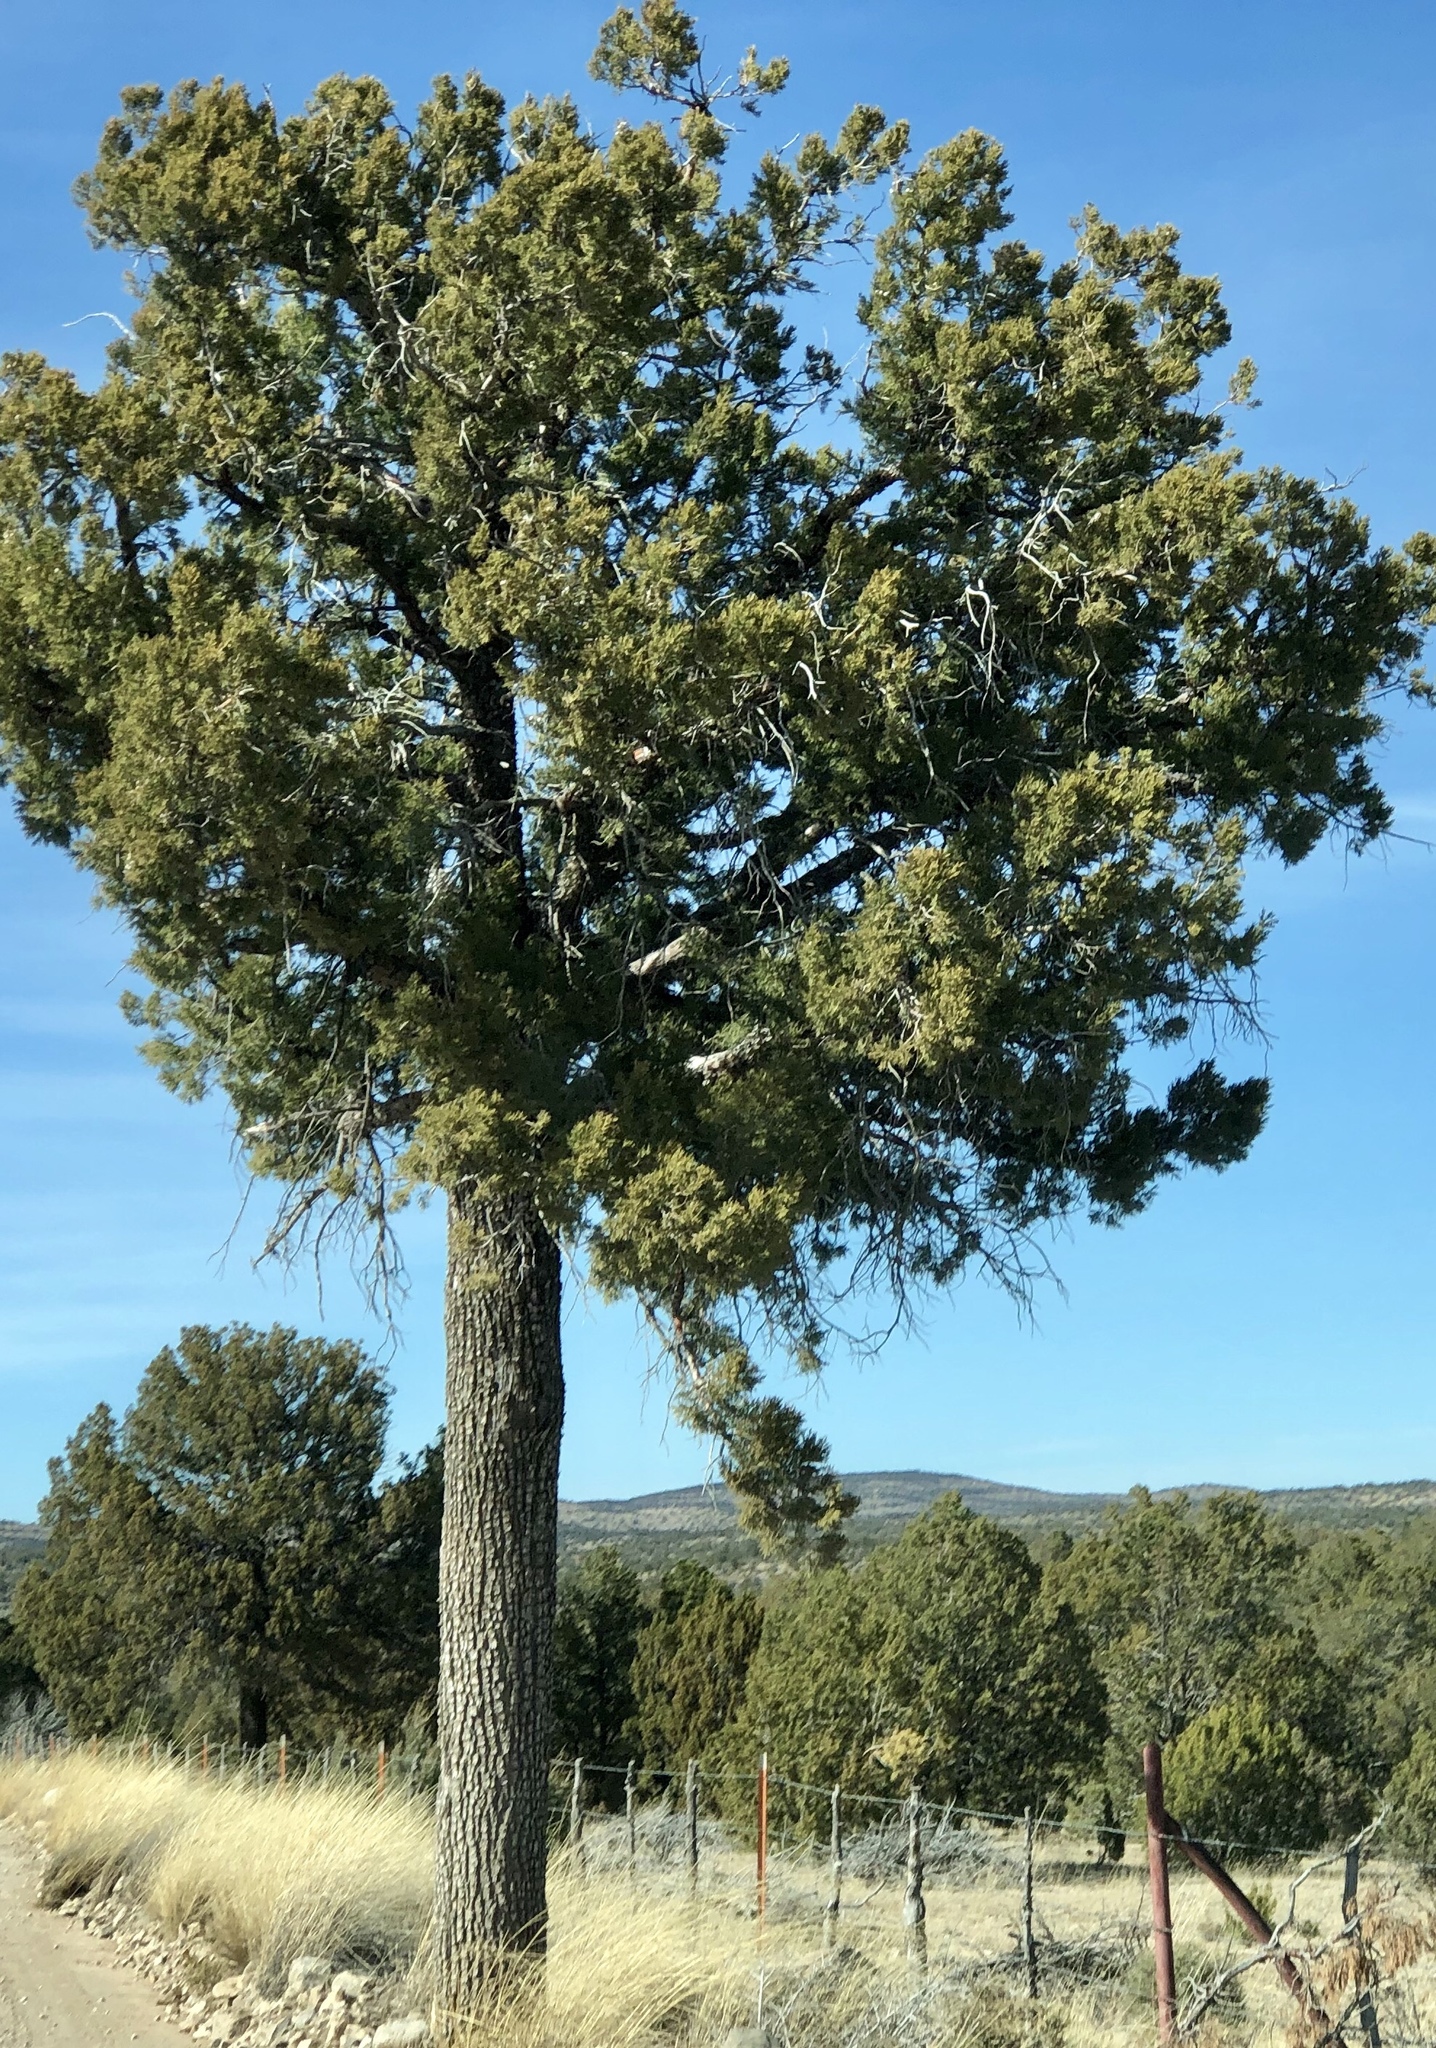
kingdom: Plantae
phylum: Tracheophyta
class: Pinopsida
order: Pinales
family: Cupressaceae
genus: Juniperus
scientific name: Juniperus deppeana
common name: Alligator juniper
